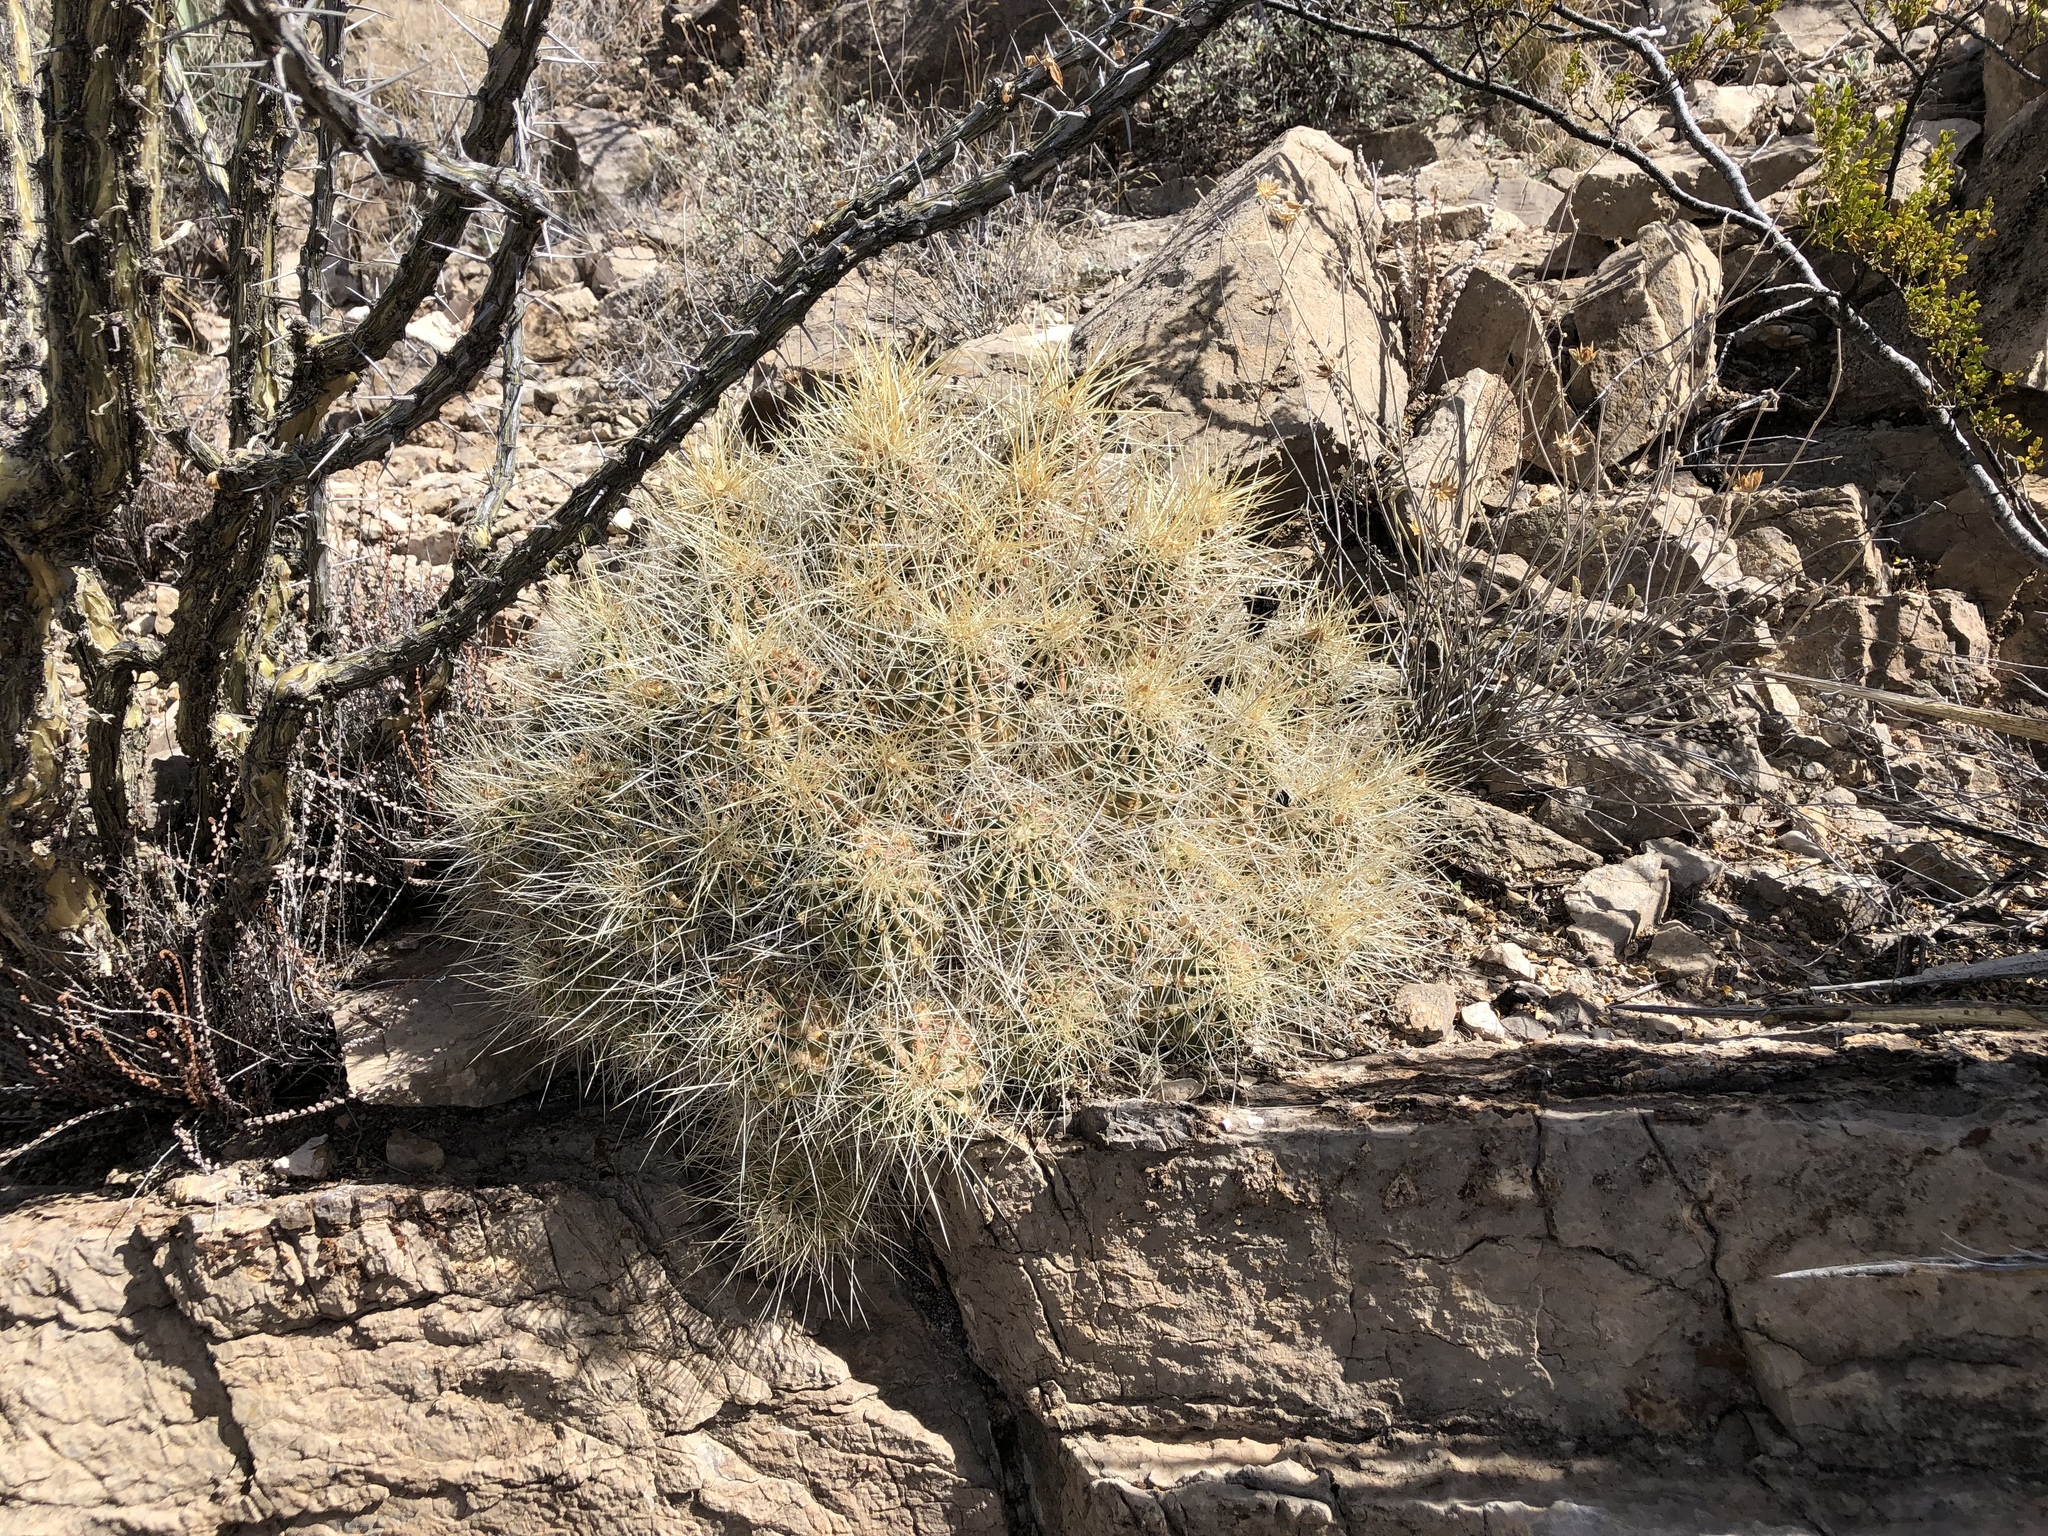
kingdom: Plantae
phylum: Tracheophyta
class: Magnoliopsida
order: Caryophyllales
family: Cactaceae
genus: Echinocereus
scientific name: Echinocereus stramineus
